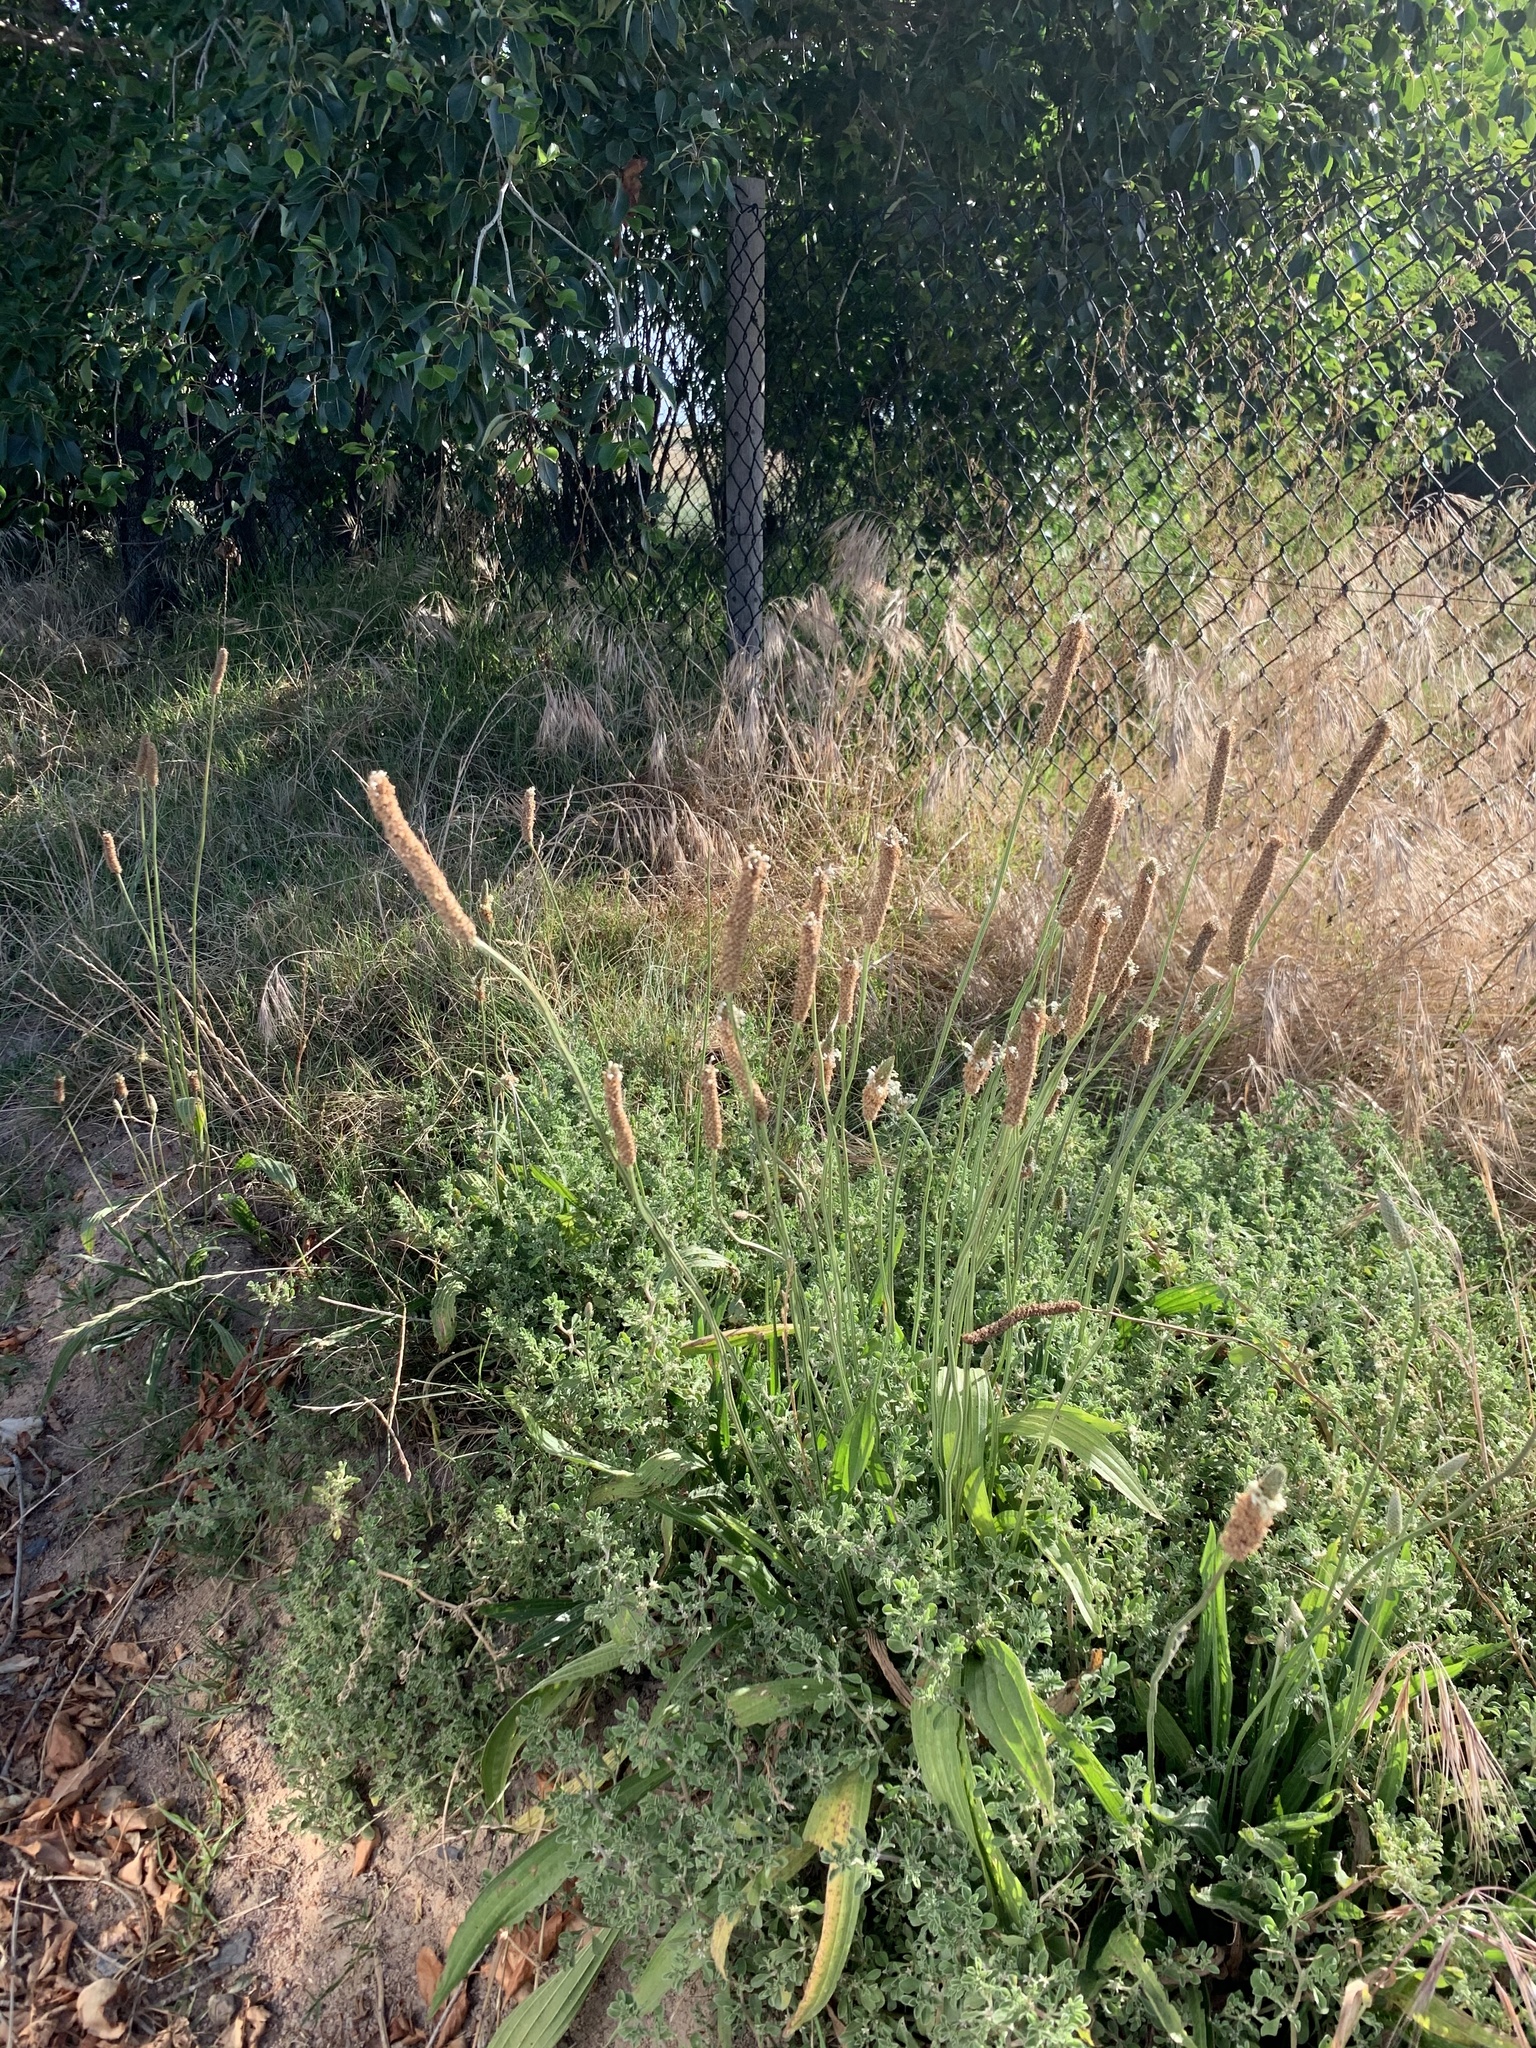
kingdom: Plantae
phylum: Tracheophyta
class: Magnoliopsida
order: Lamiales
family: Plantaginaceae
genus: Plantago
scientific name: Plantago lanceolata
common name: Ribwort plantain
